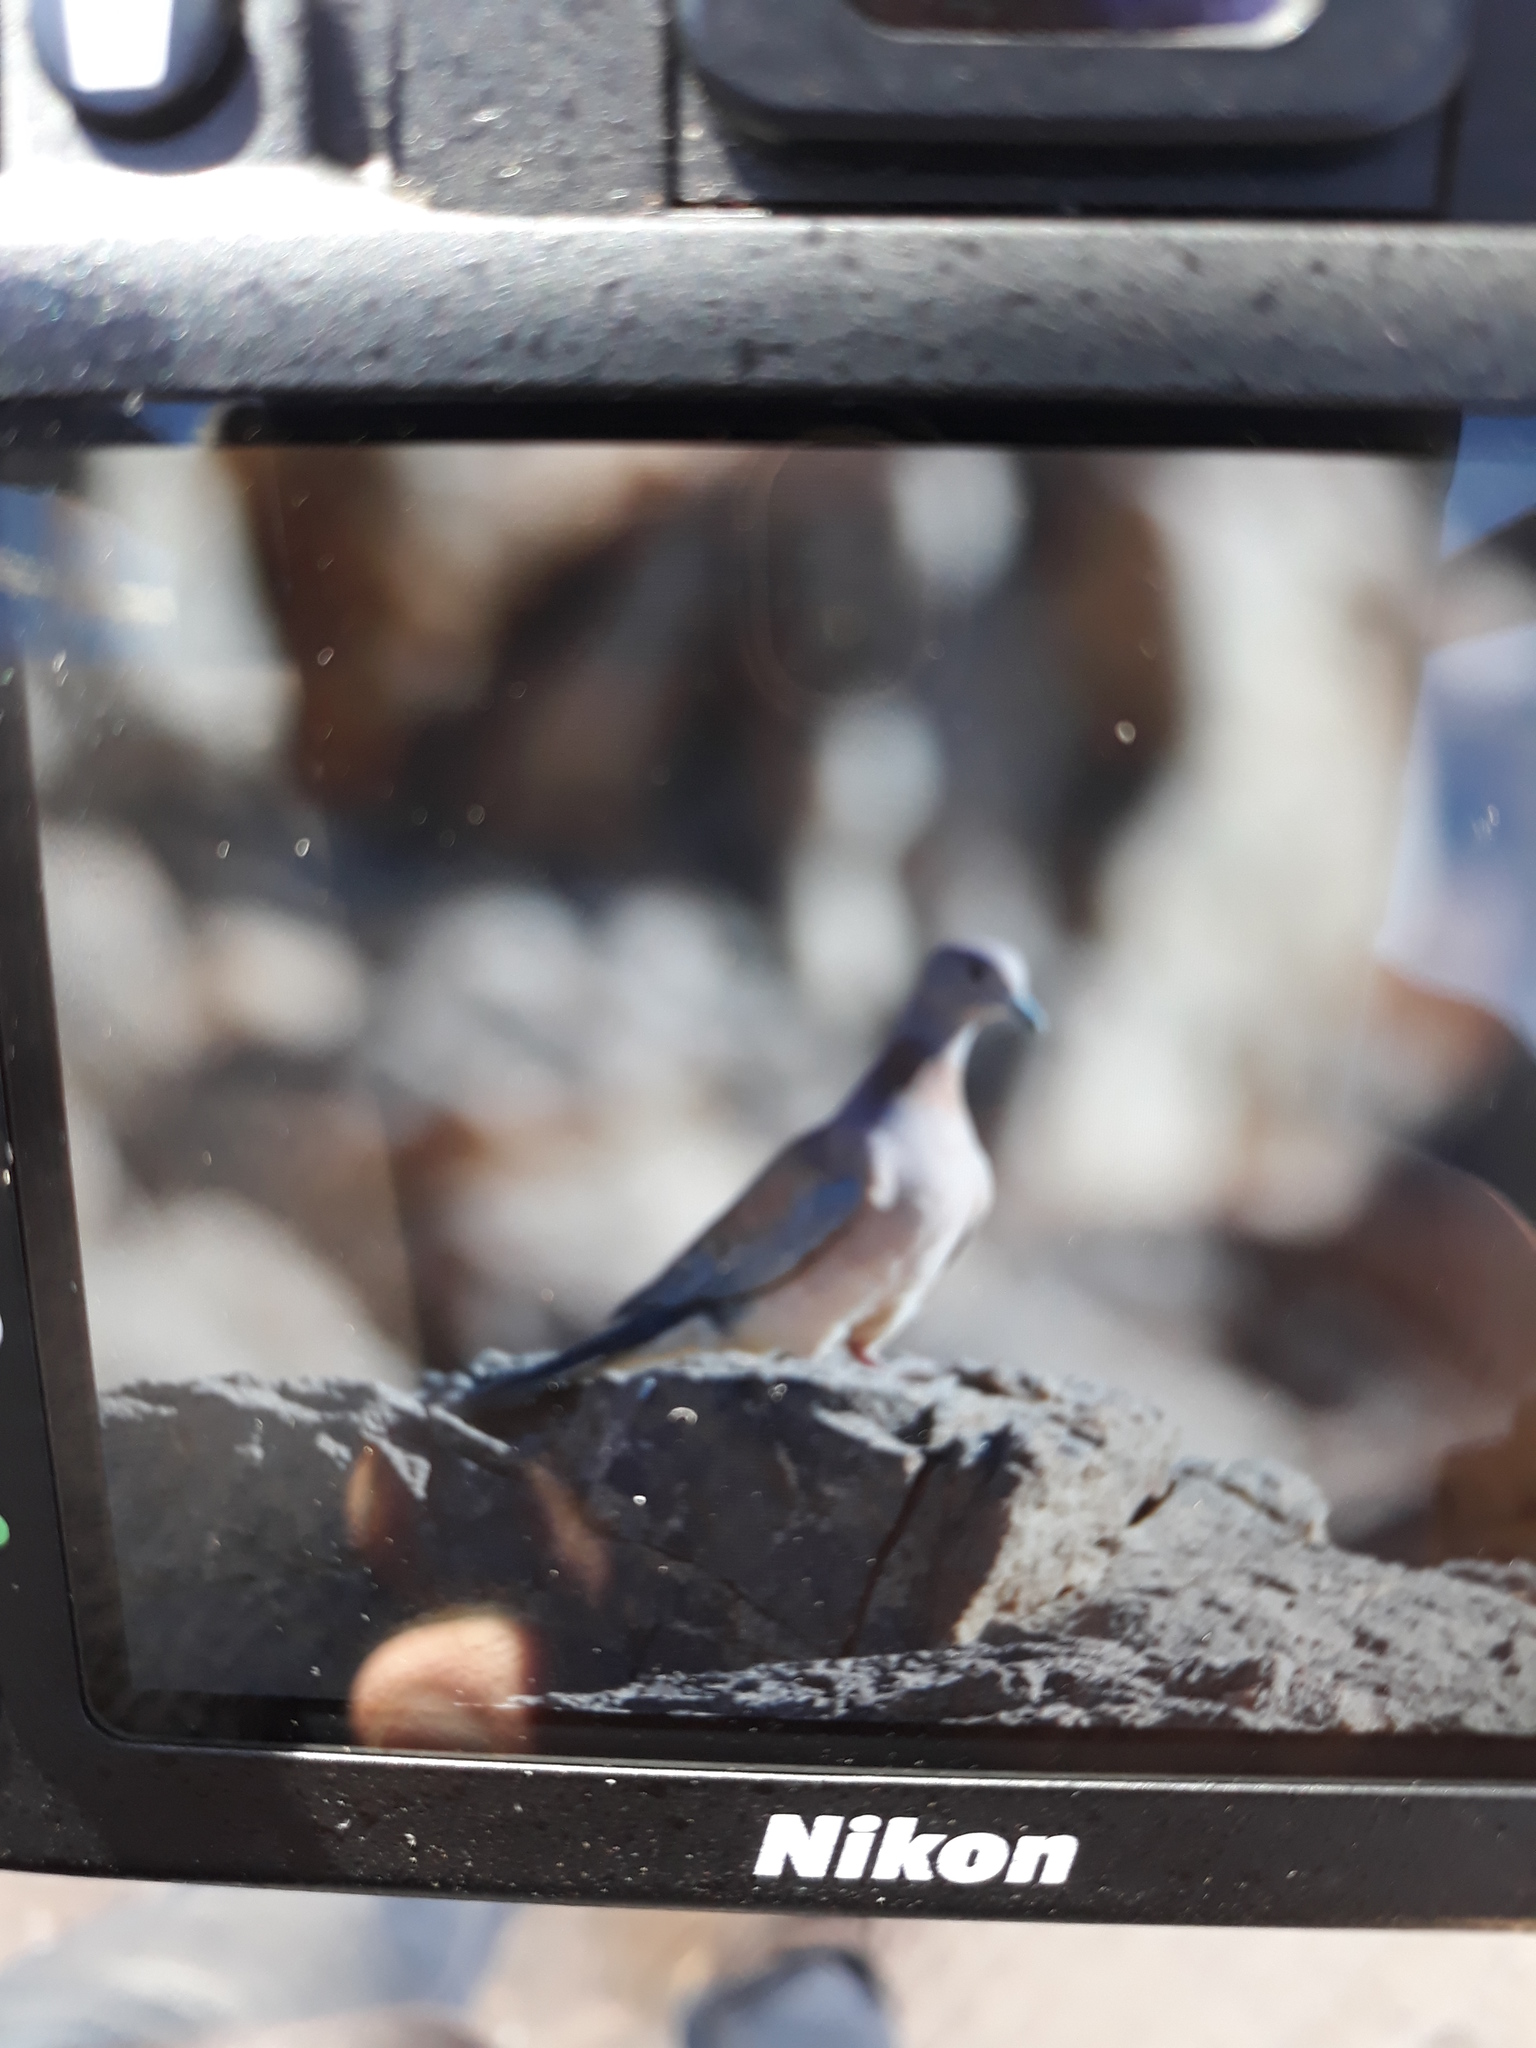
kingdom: Animalia
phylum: Chordata
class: Aves
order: Columbiformes
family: Columbidae
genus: Spilopelia
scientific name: Spilopelia senegalensis
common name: Laughing dove
